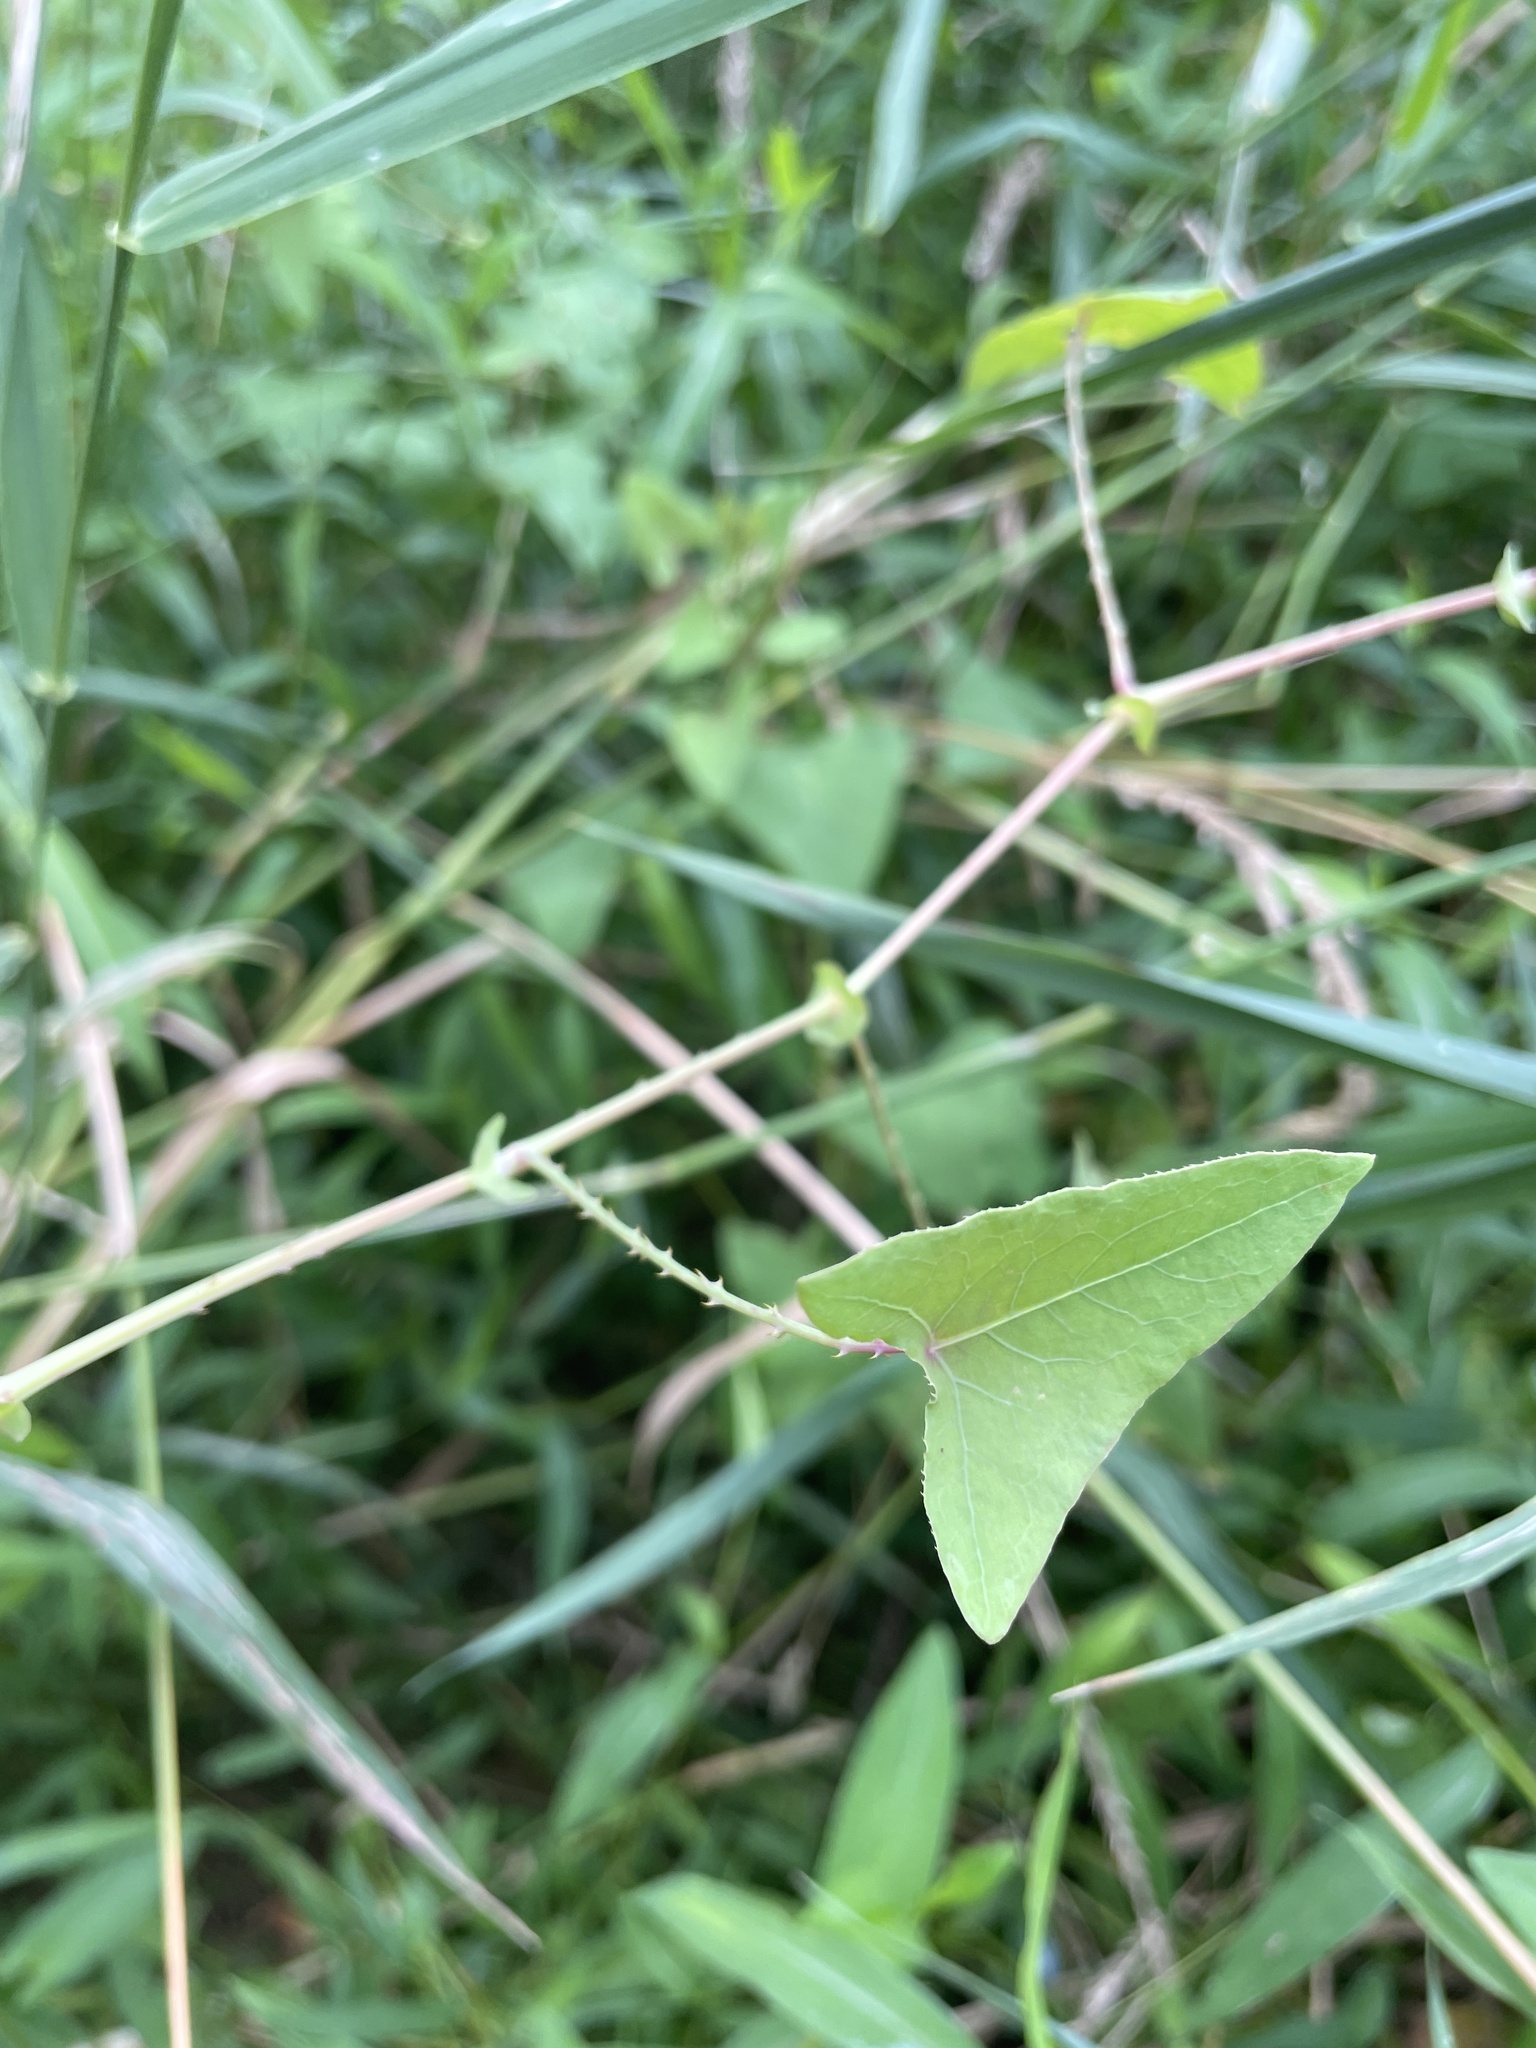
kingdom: Plantae
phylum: Tracheophyta
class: Magnoliopsida
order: Caryophyllales
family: Polygonaceae
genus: Persicaria
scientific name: Persicaria perfoliata
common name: Asiatic tearthumb
